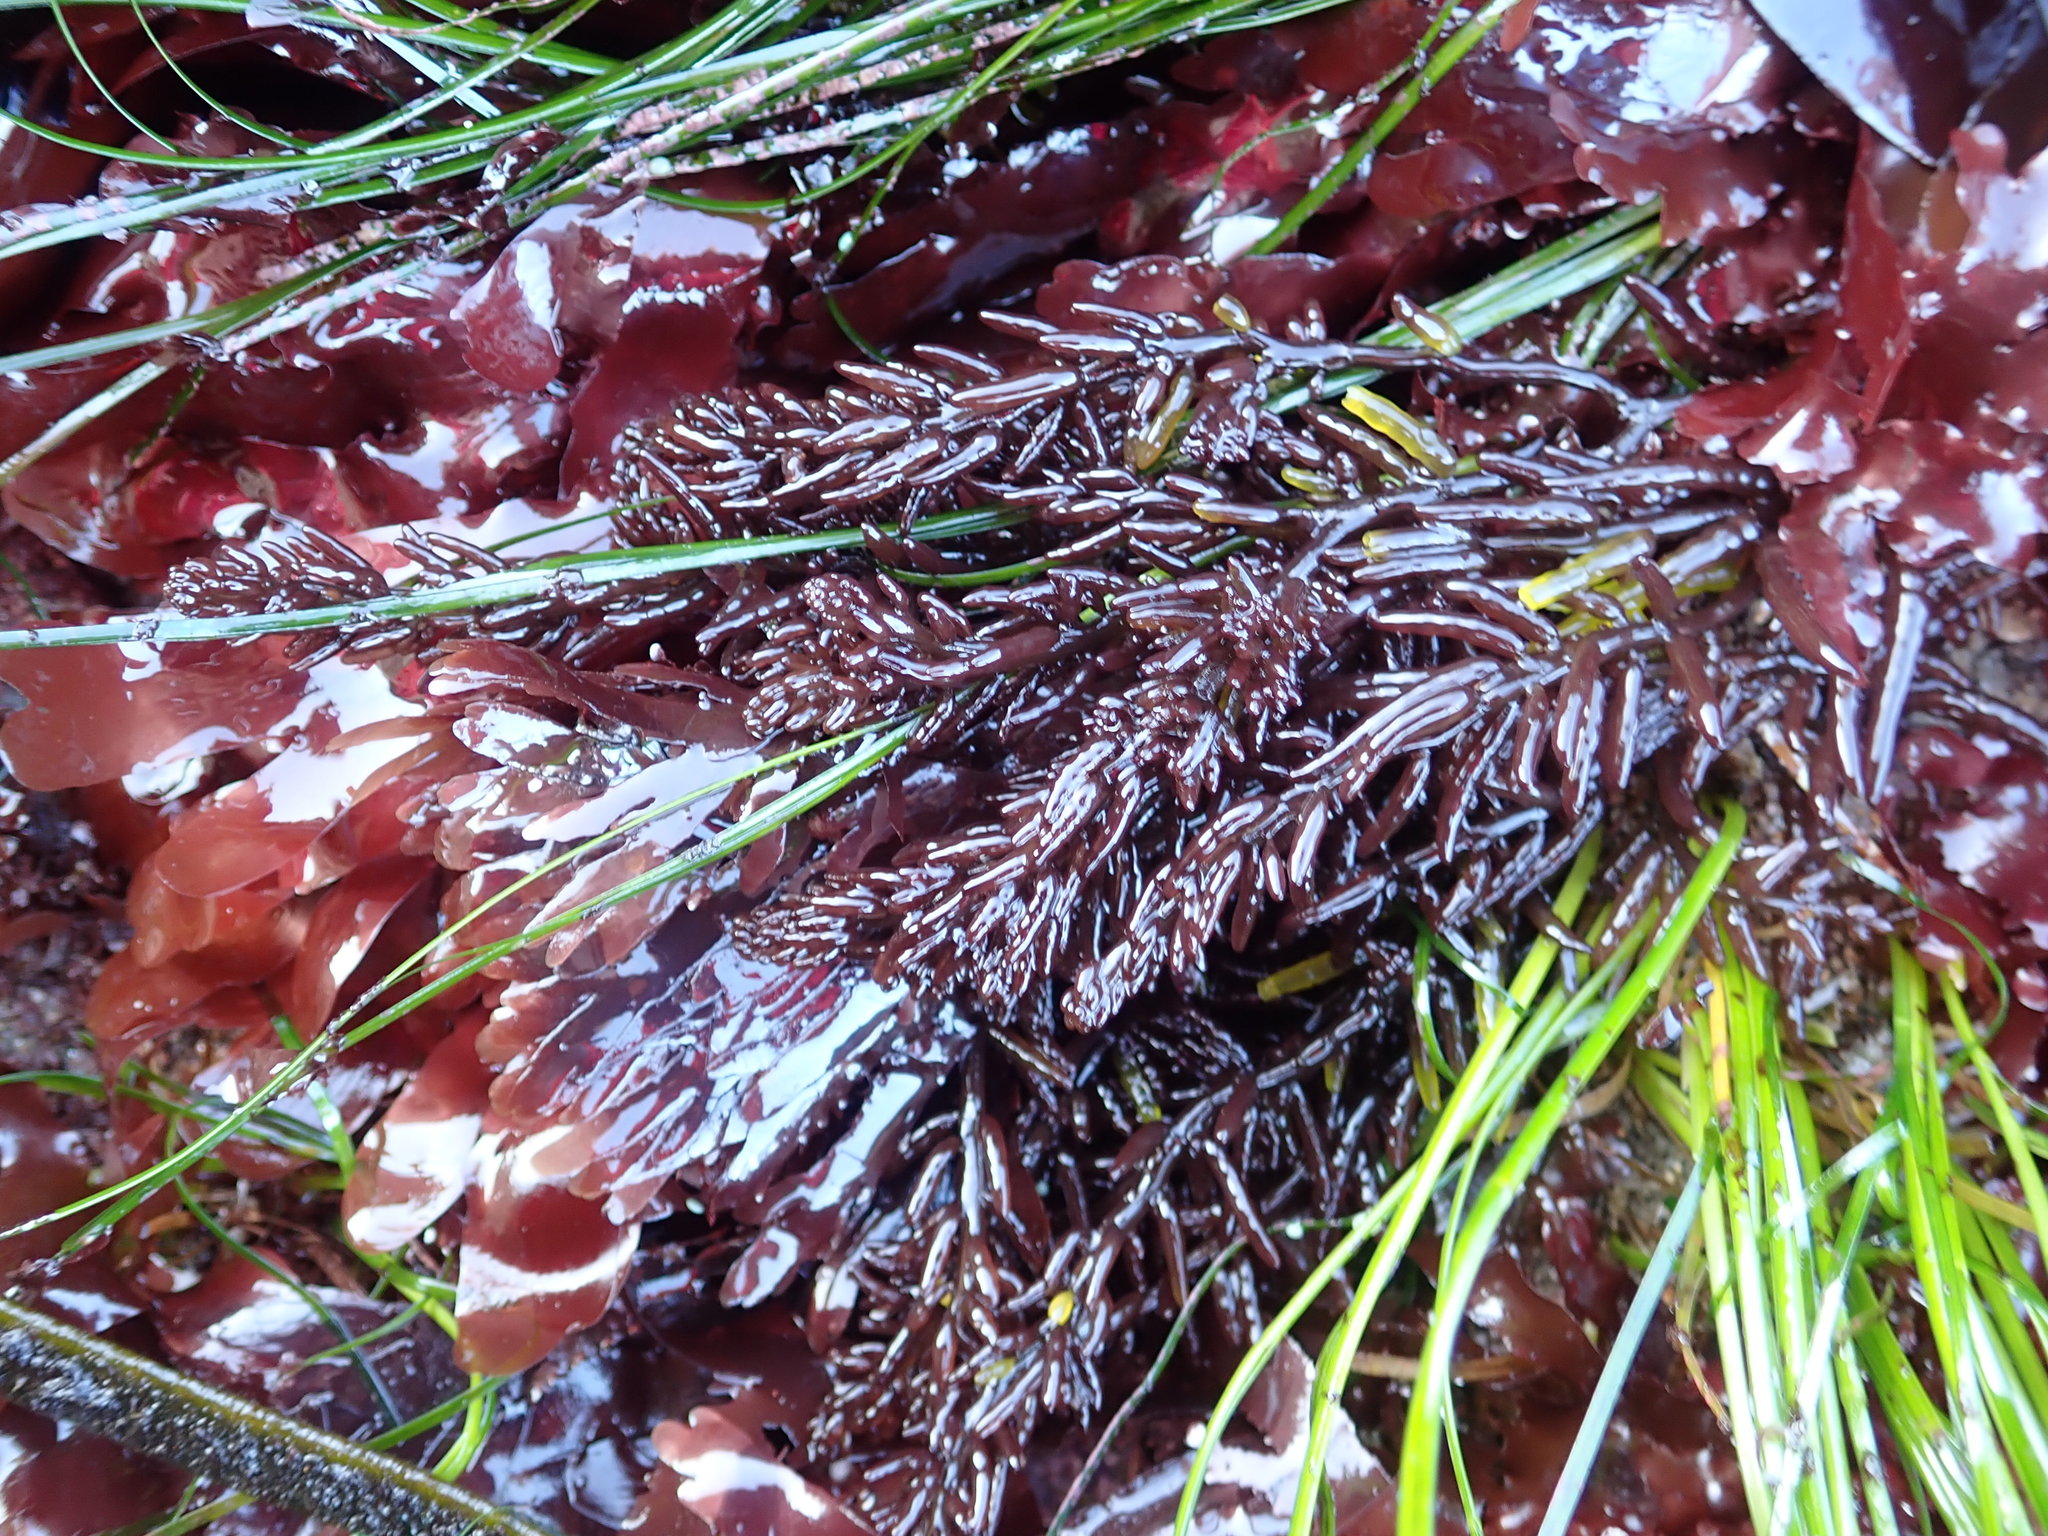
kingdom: Plantae
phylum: Rhodophyta
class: Florideophyceae
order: Rhodymeniales
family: Champiaceae
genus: Neogastroclonium
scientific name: Neogastroclonium subarticulatum
